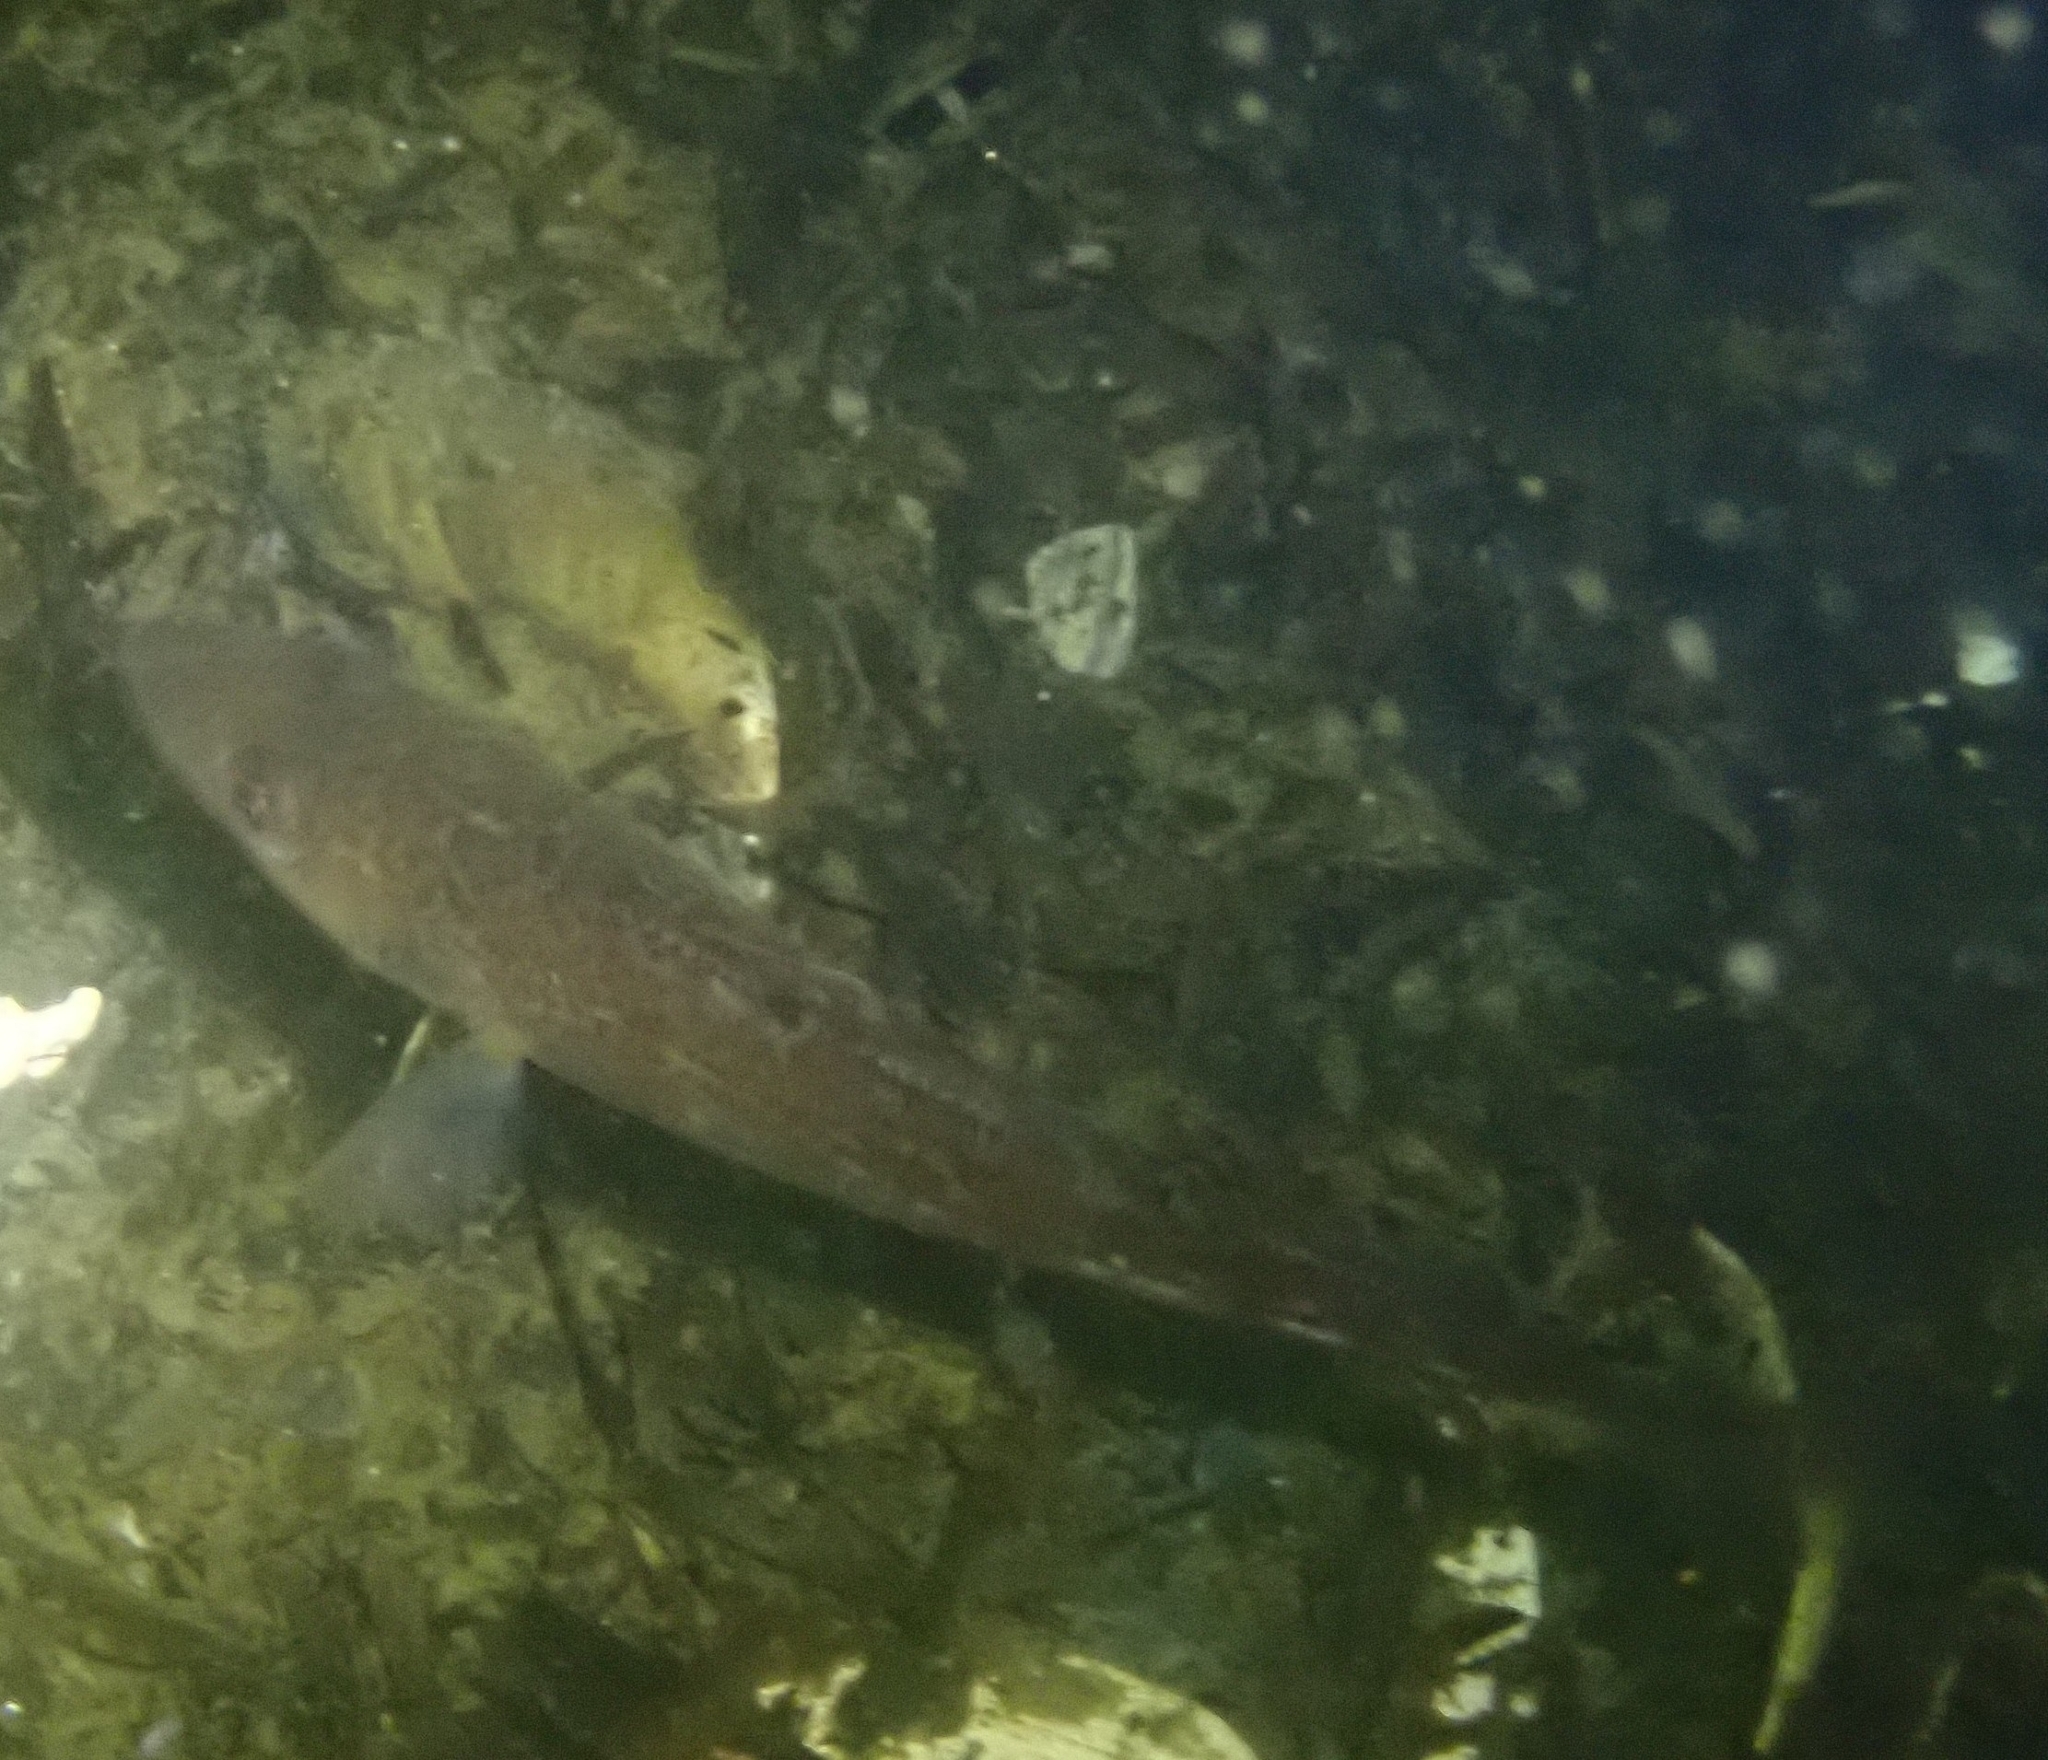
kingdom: Animalia
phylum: Chordata
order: Gadiformes
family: Gadidae
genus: Gadus
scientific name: Gadus morhua
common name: Atlantic cod
